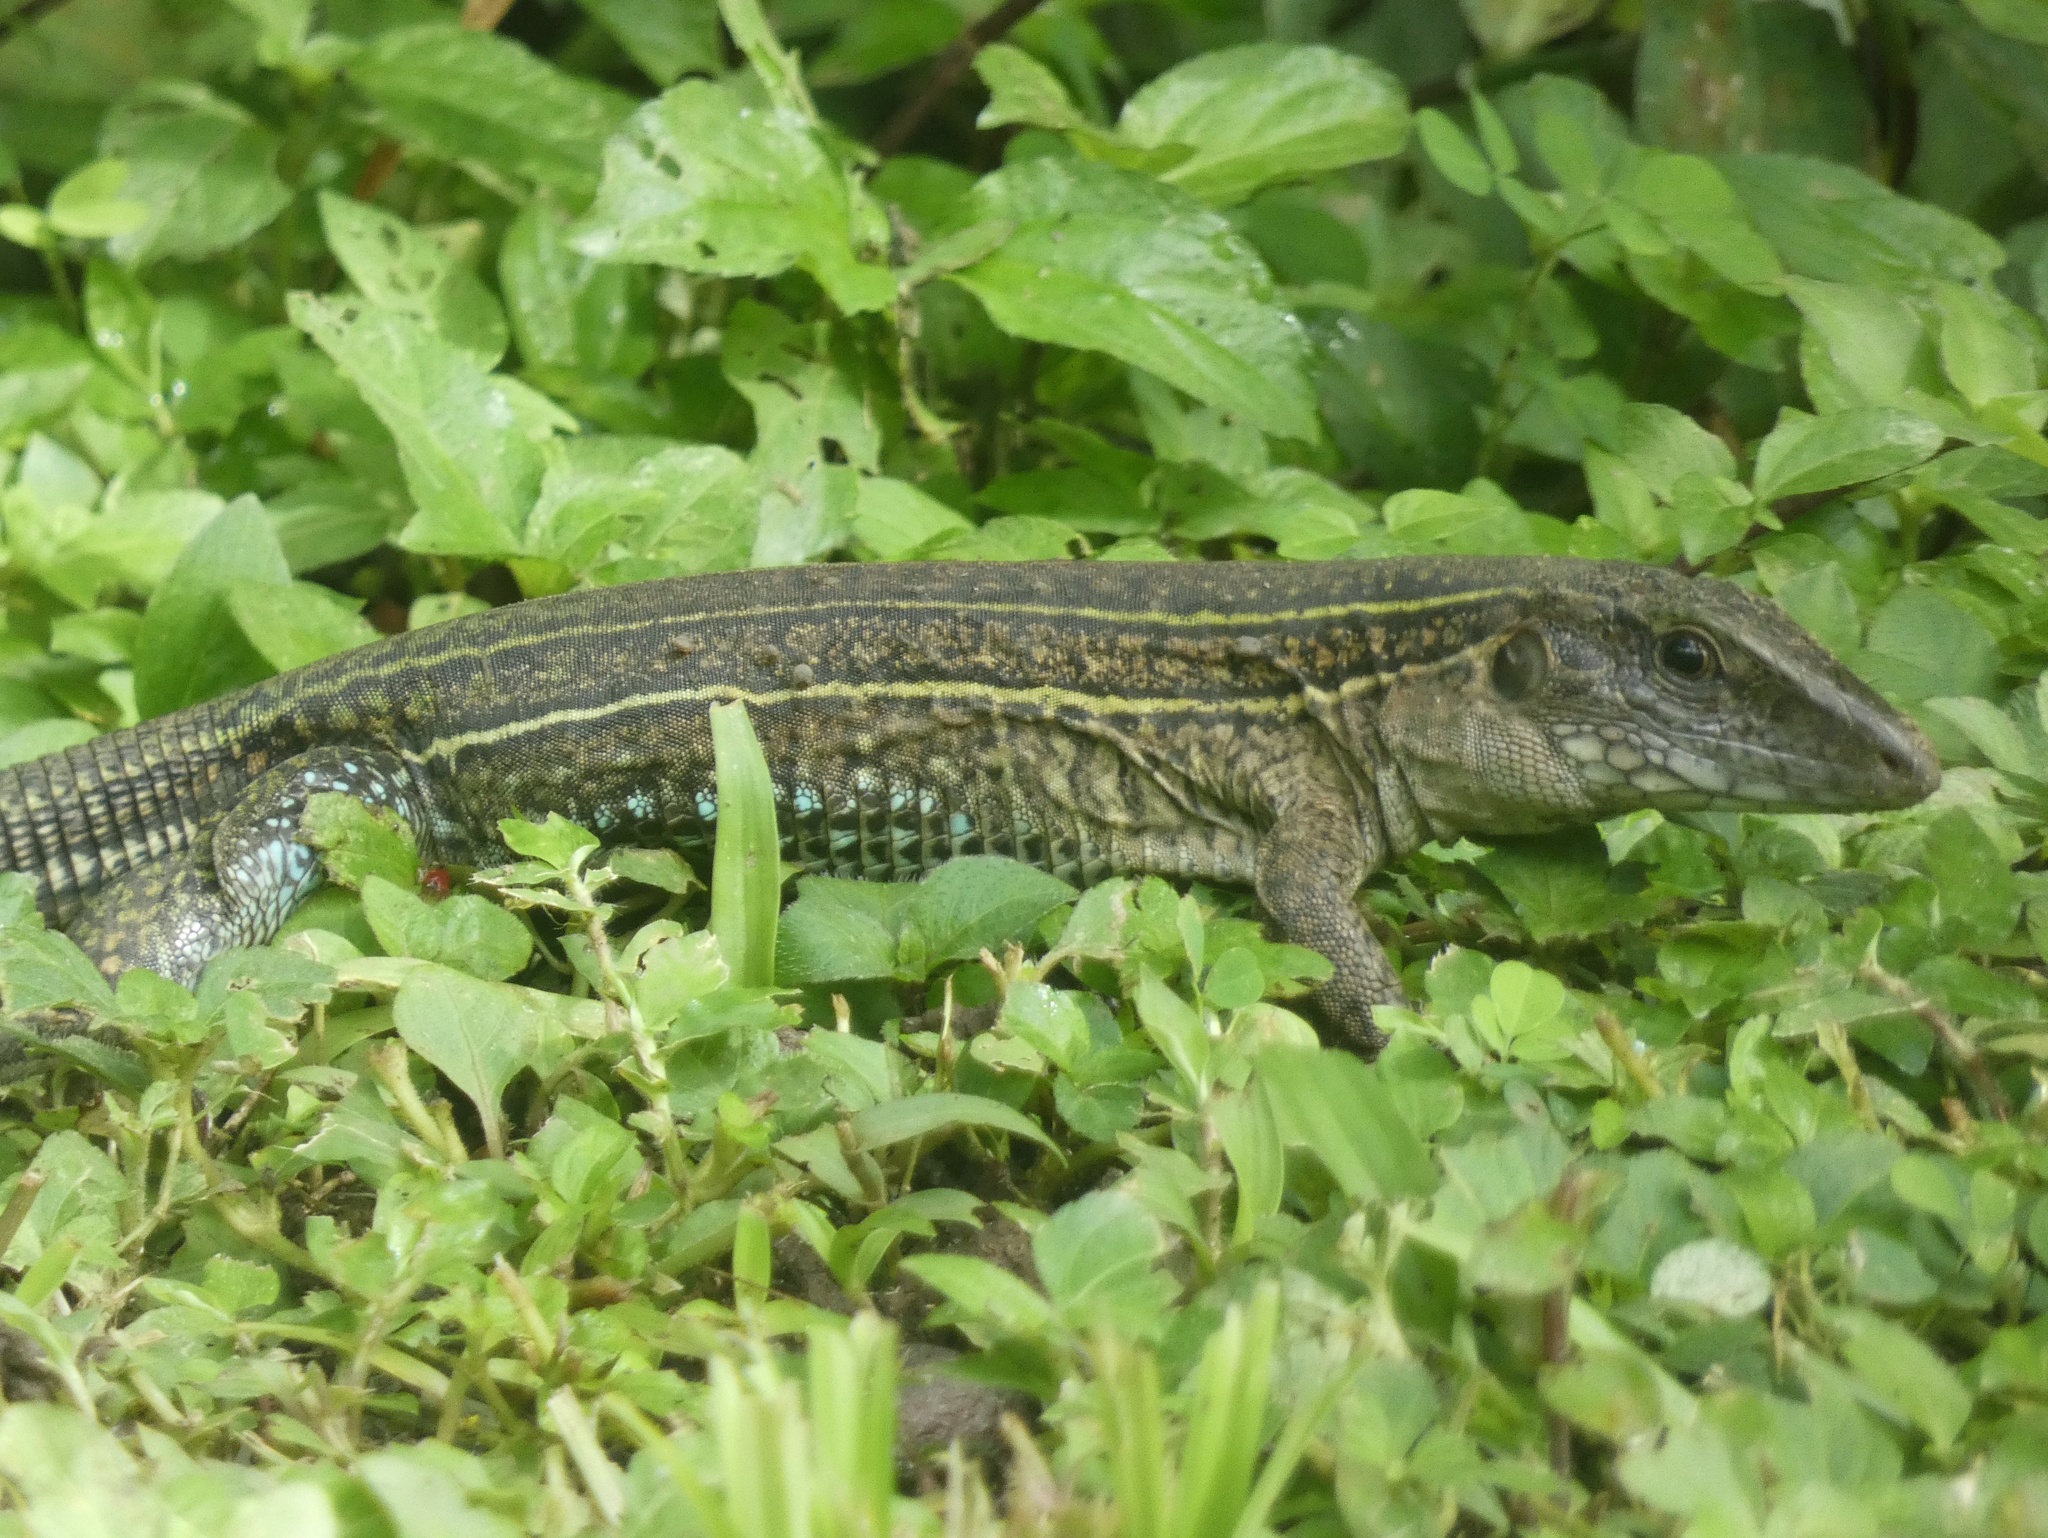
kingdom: Animalia
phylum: Chordata
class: Squamata
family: Teiidae
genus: Ameiva
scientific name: Ameiva praesignis
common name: Giant ameiva
